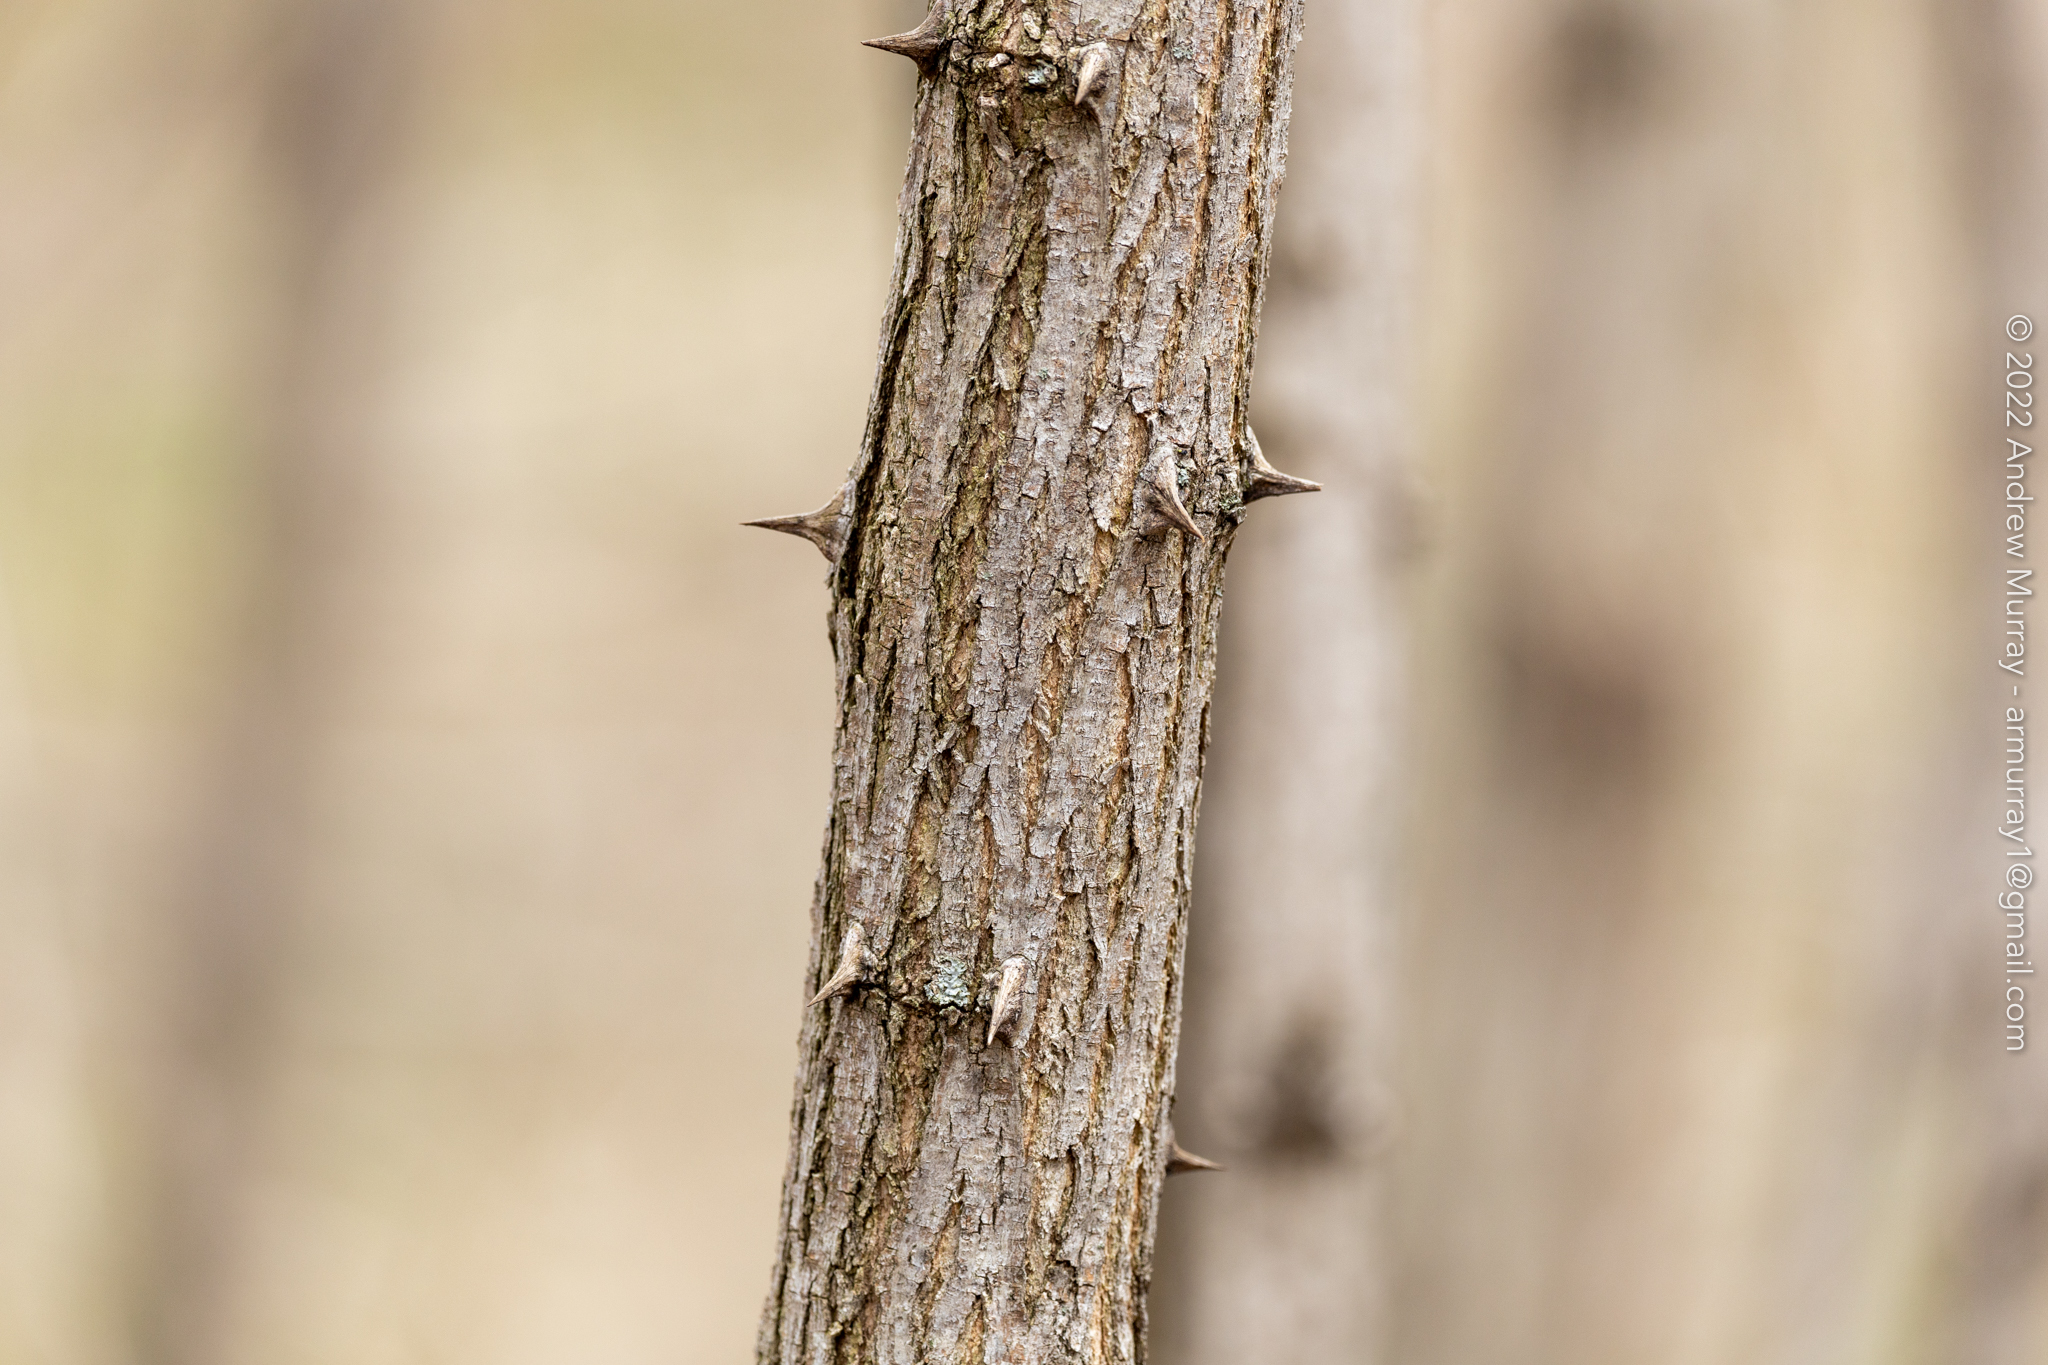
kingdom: Plantae
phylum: Tracheophyta
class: Magnoliopsida
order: Fabales
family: Fabaceae
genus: Robinia
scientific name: Robinia pseudoacacia
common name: Black locust
